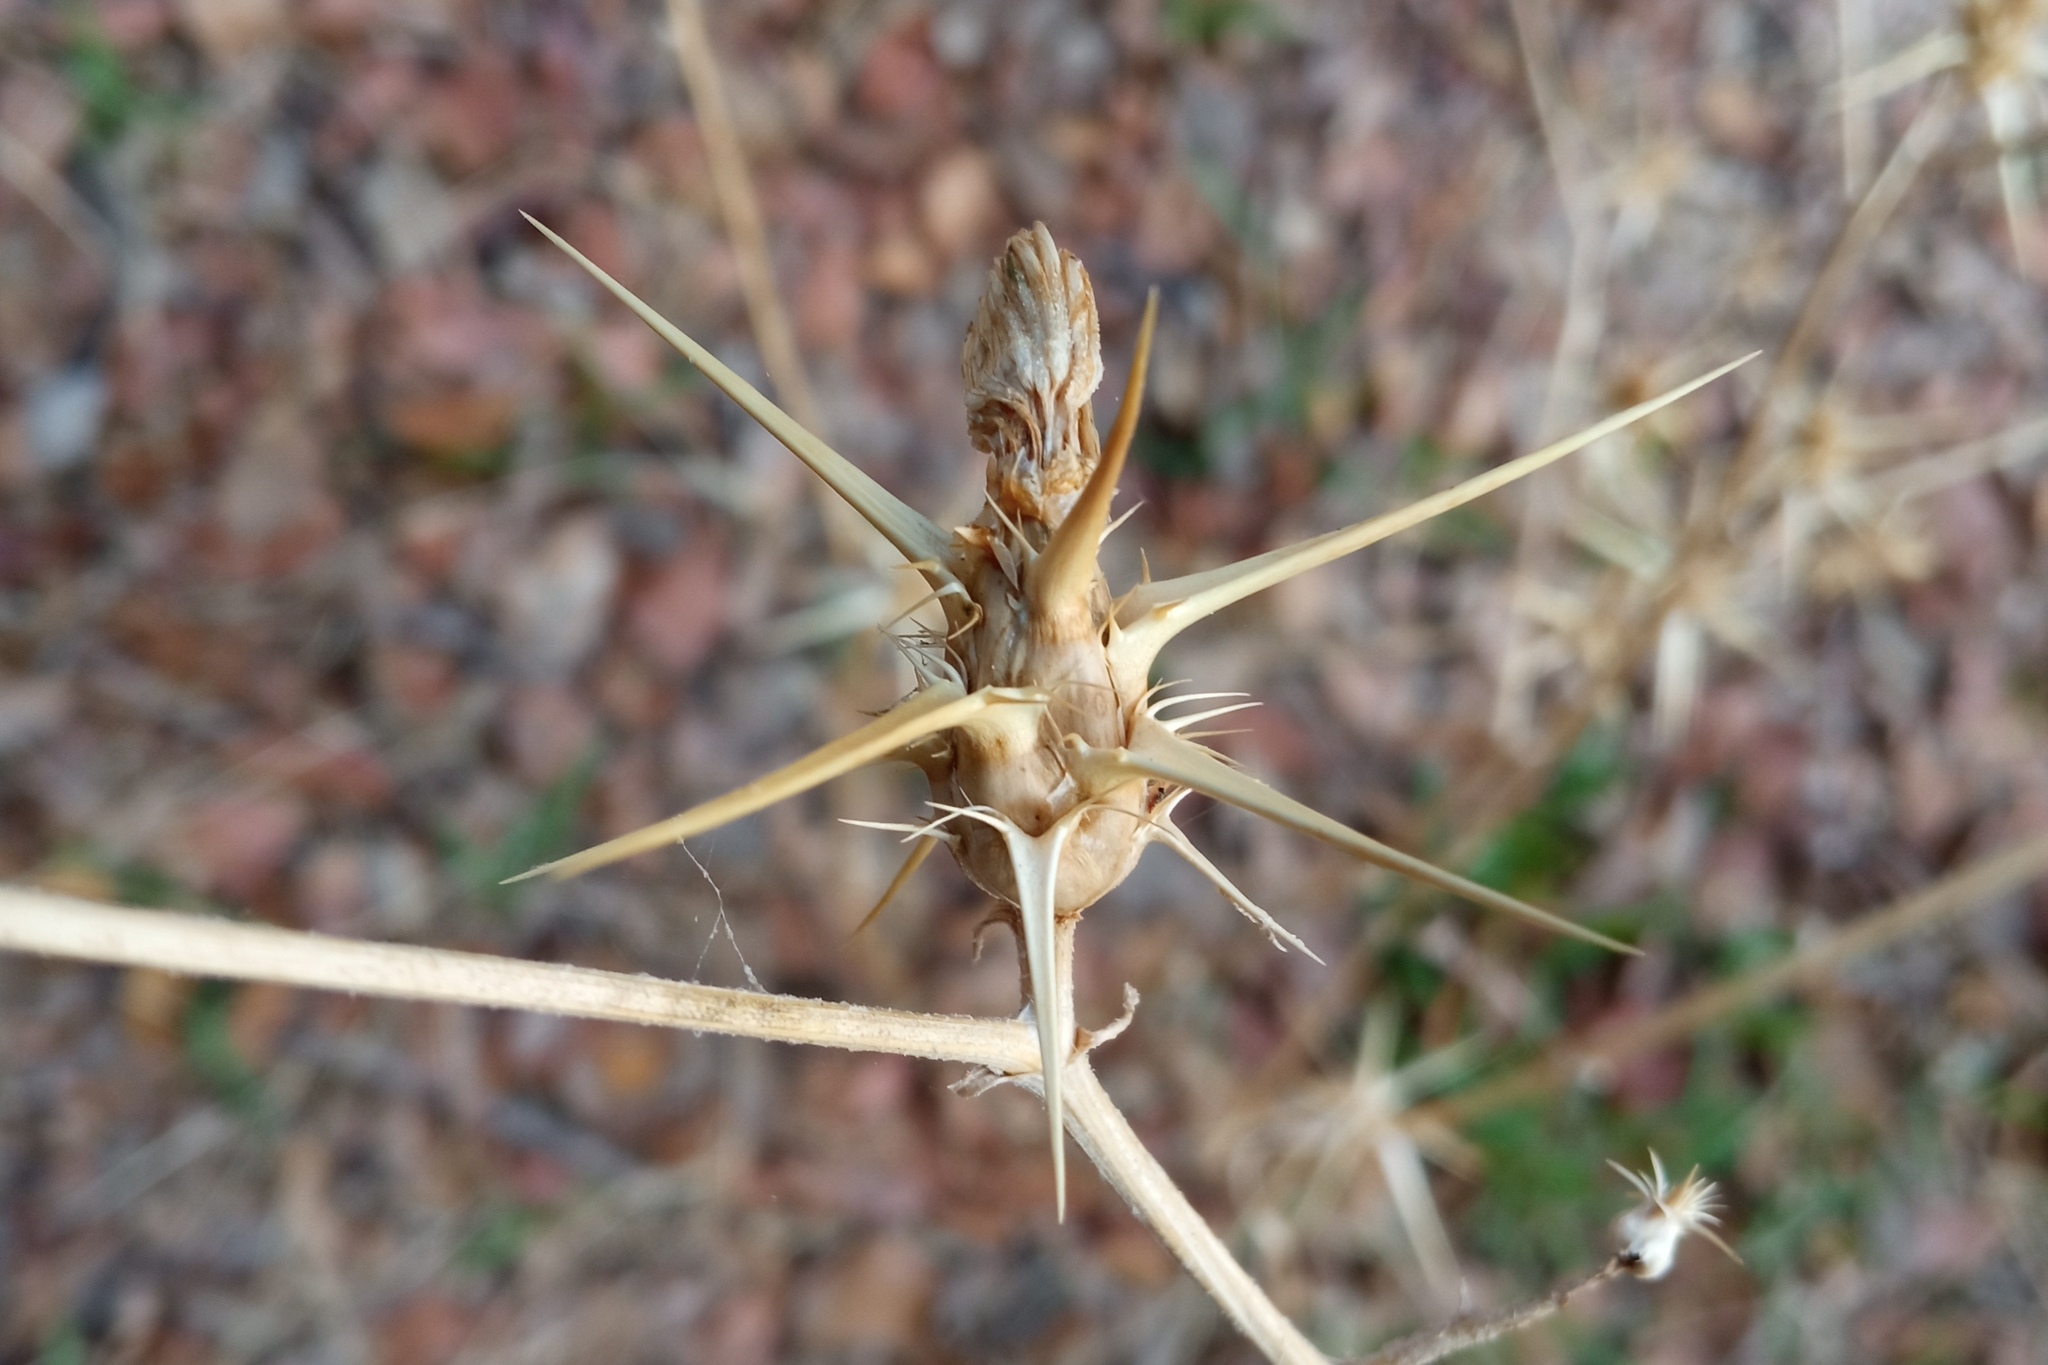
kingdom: Plantae
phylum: Tracheophyta
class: Magnoliopsida
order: Asterales
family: Asteraceae
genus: Centaurea
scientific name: Centaurea calcitrapa
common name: Red star-thistle
